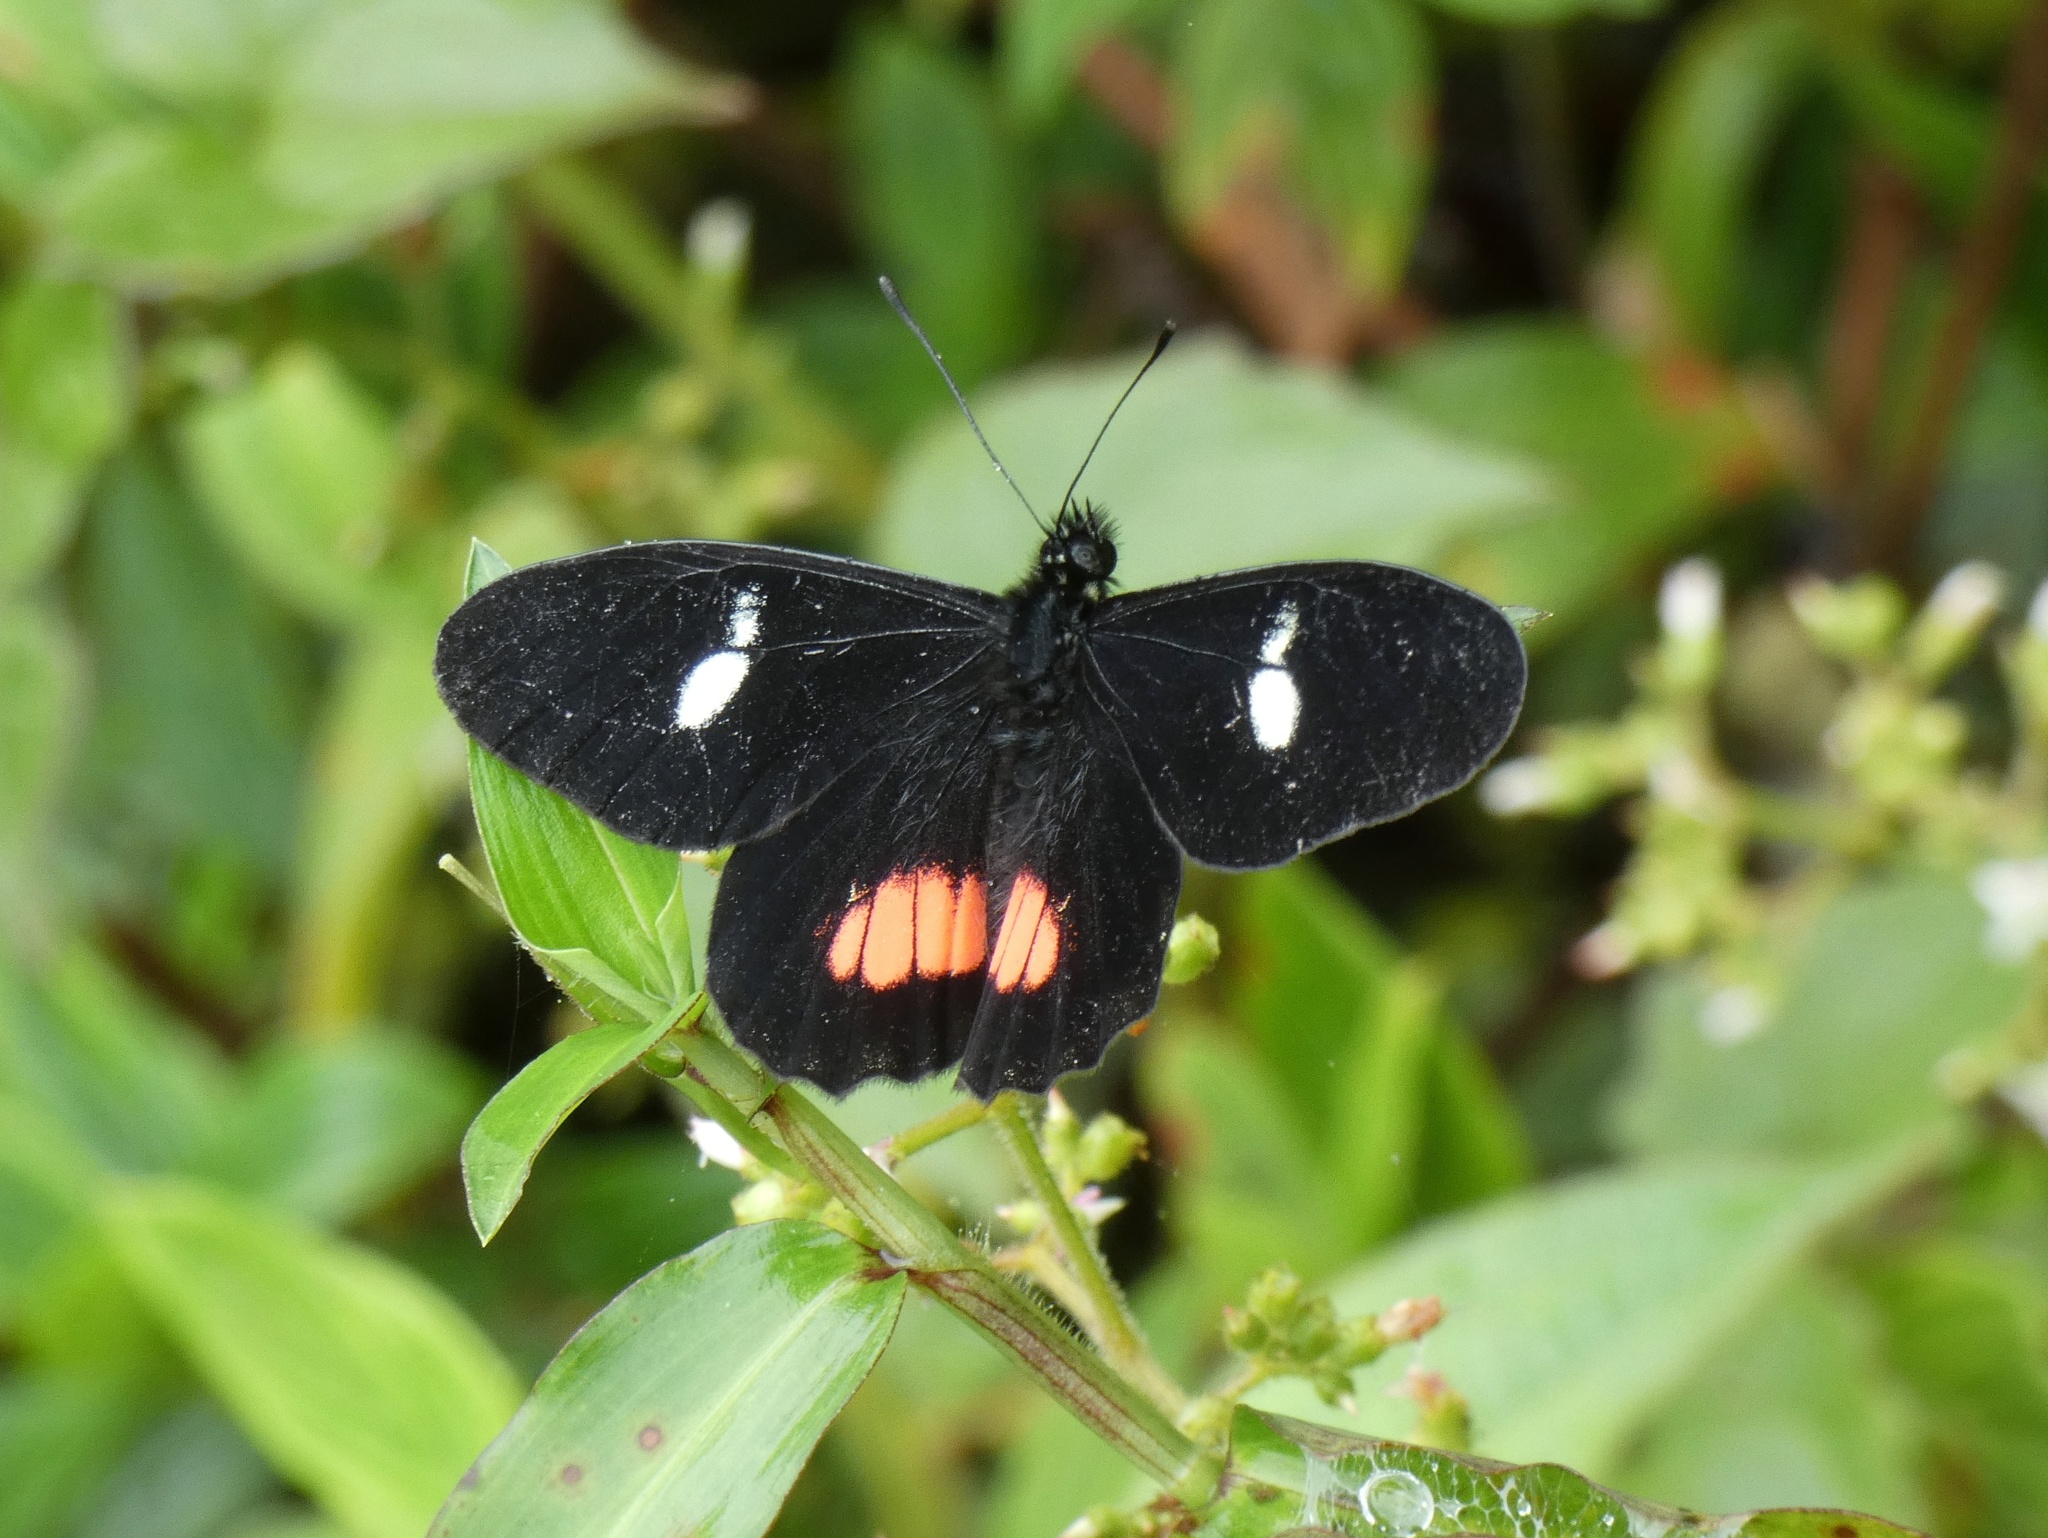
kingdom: Animalia
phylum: Arthropoda
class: Insecta
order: Lepidoptera
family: Pieridae
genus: Archonias
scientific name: Archonias brassolis
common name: Cattleheart white
